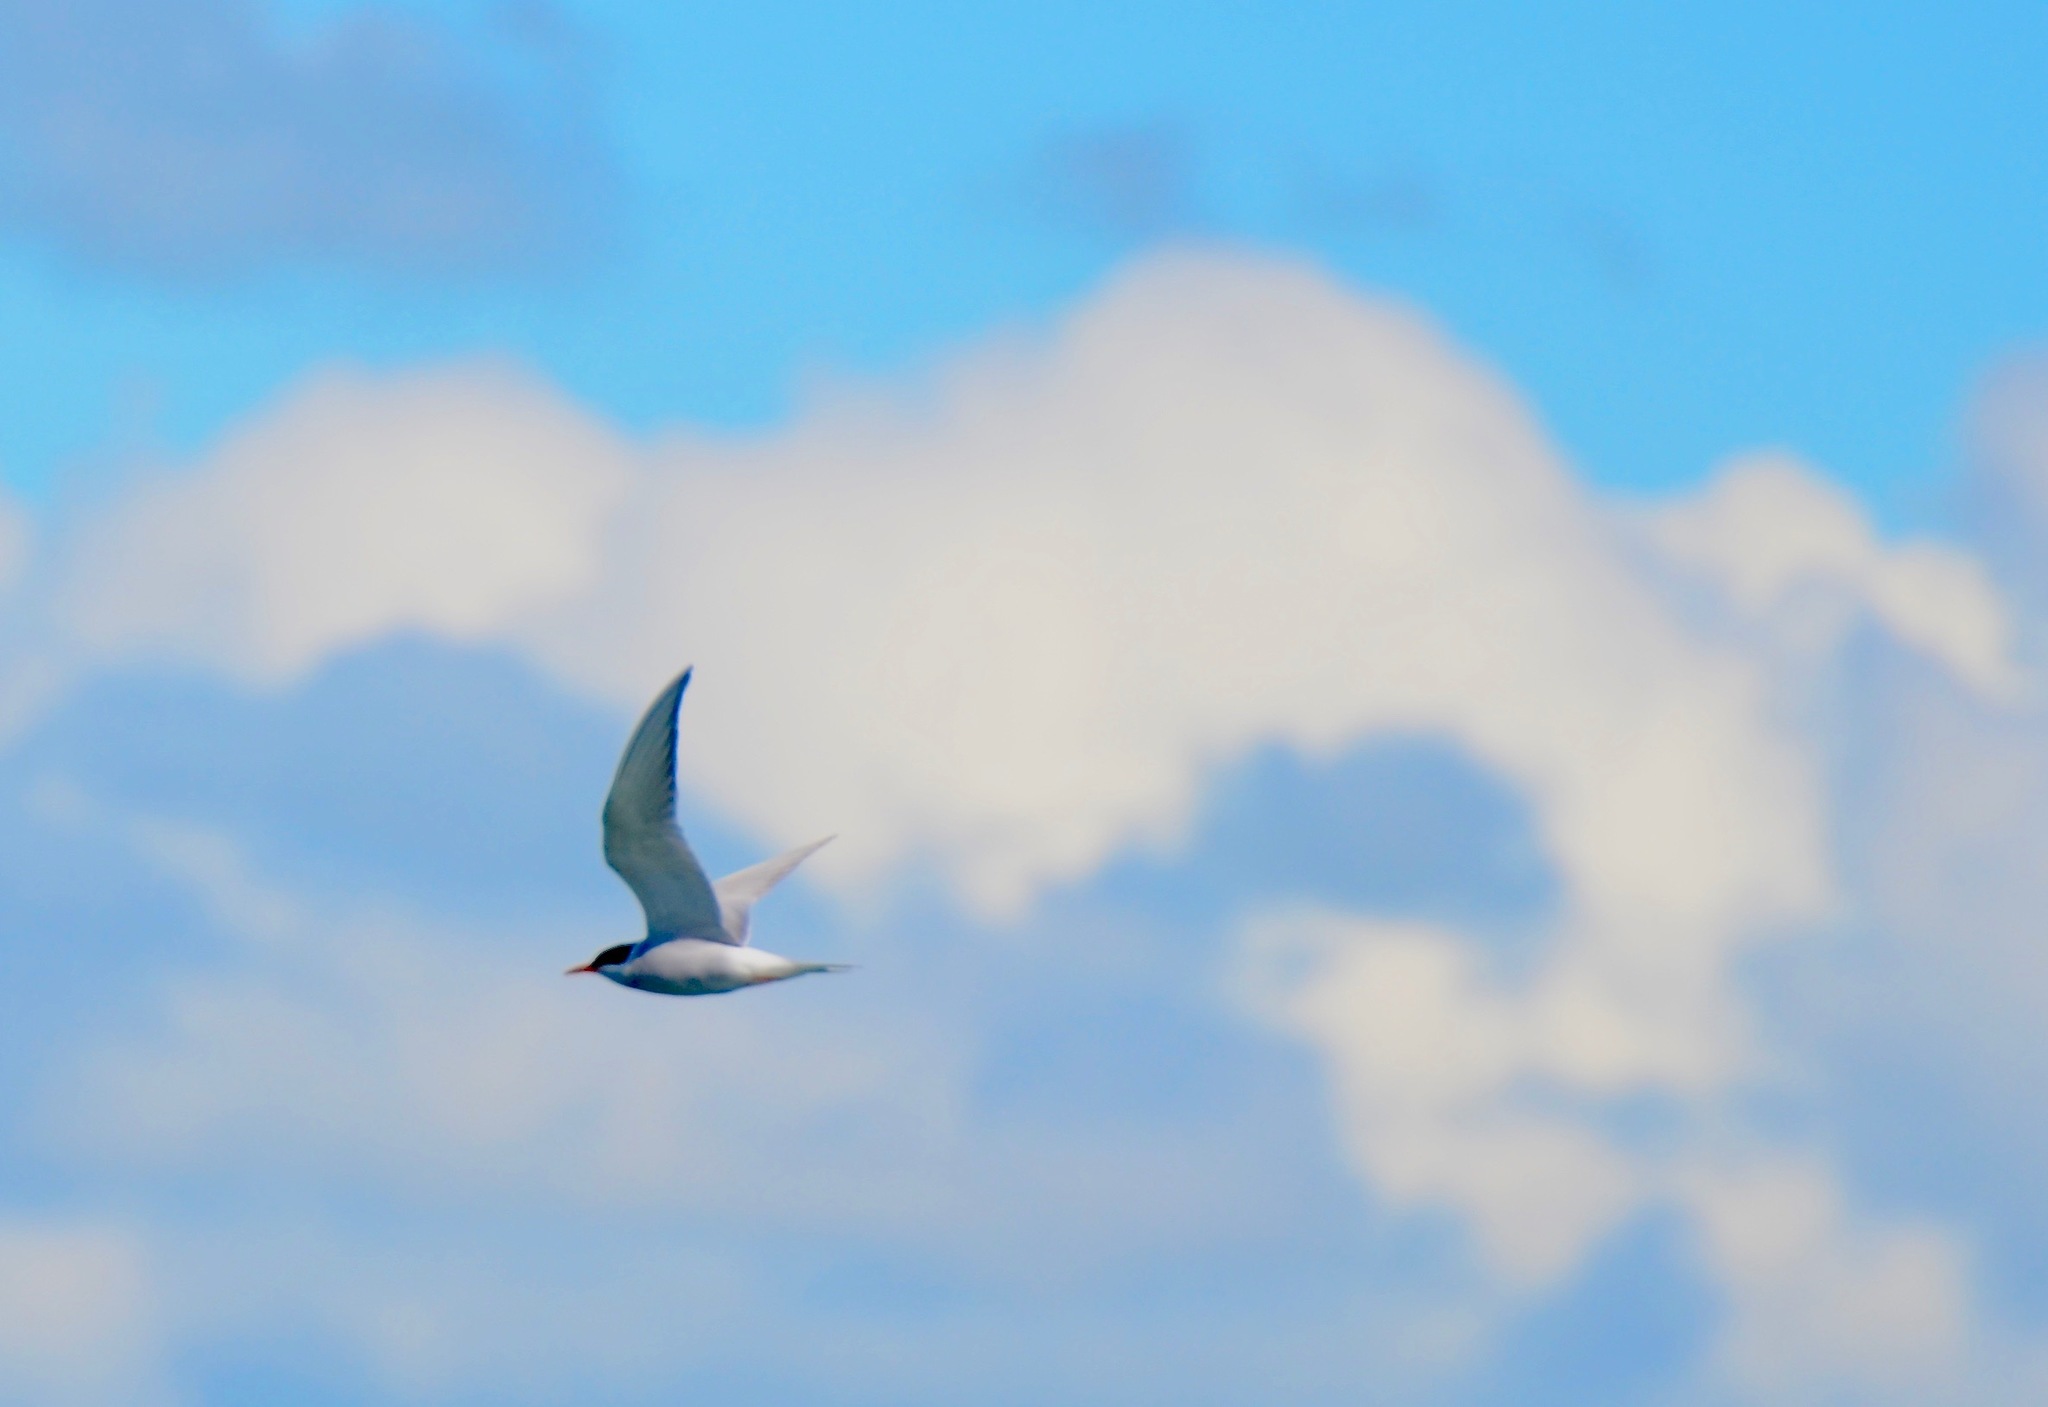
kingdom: Animalia
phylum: Chordata
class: Aves
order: Charadriiformes
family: Laridae
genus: Chlidonias
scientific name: Chlidonias albostriatus
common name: Black-fronted tern
